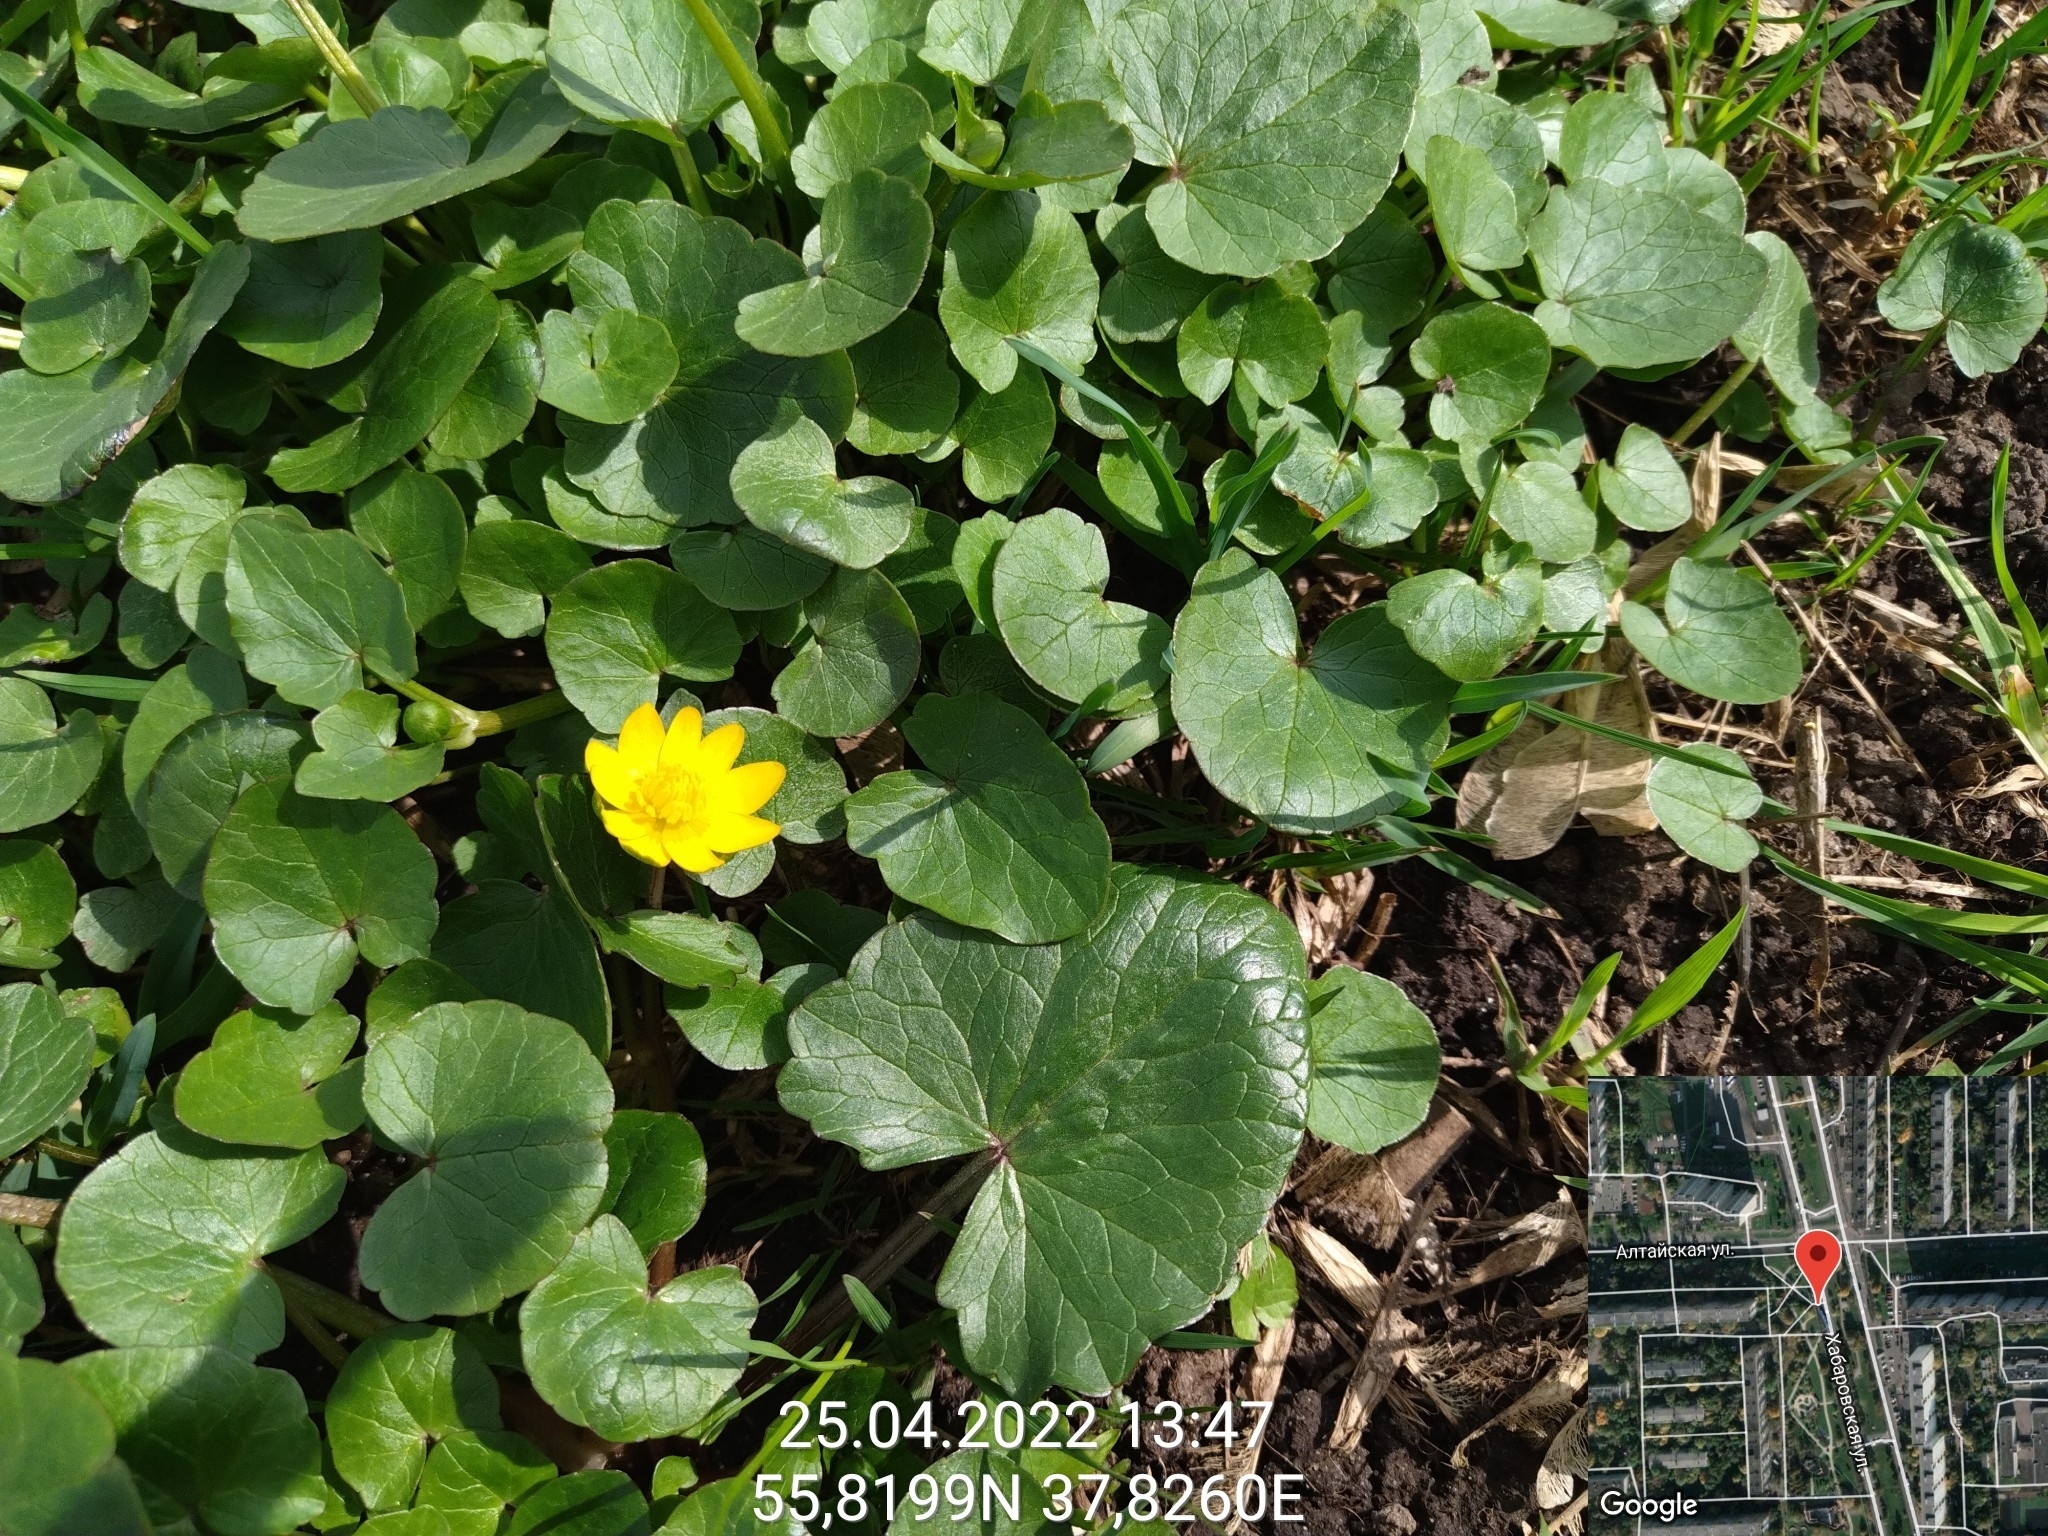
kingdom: Plantae
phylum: Tracheophyta
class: Magnoliopsida
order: Ranunculales
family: Ranunculaceae
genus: Ficaria
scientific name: Ficaria verna
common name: Lesser celandine
